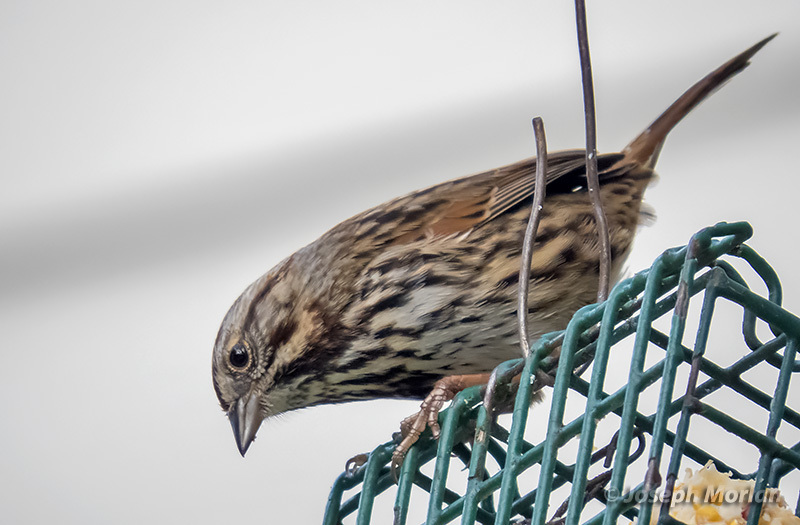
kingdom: Animalia
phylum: Chordata
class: Aves
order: Passeriformes
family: Passerellidae
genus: Melospiza
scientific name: Melospiza melodia
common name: Song sparrow
